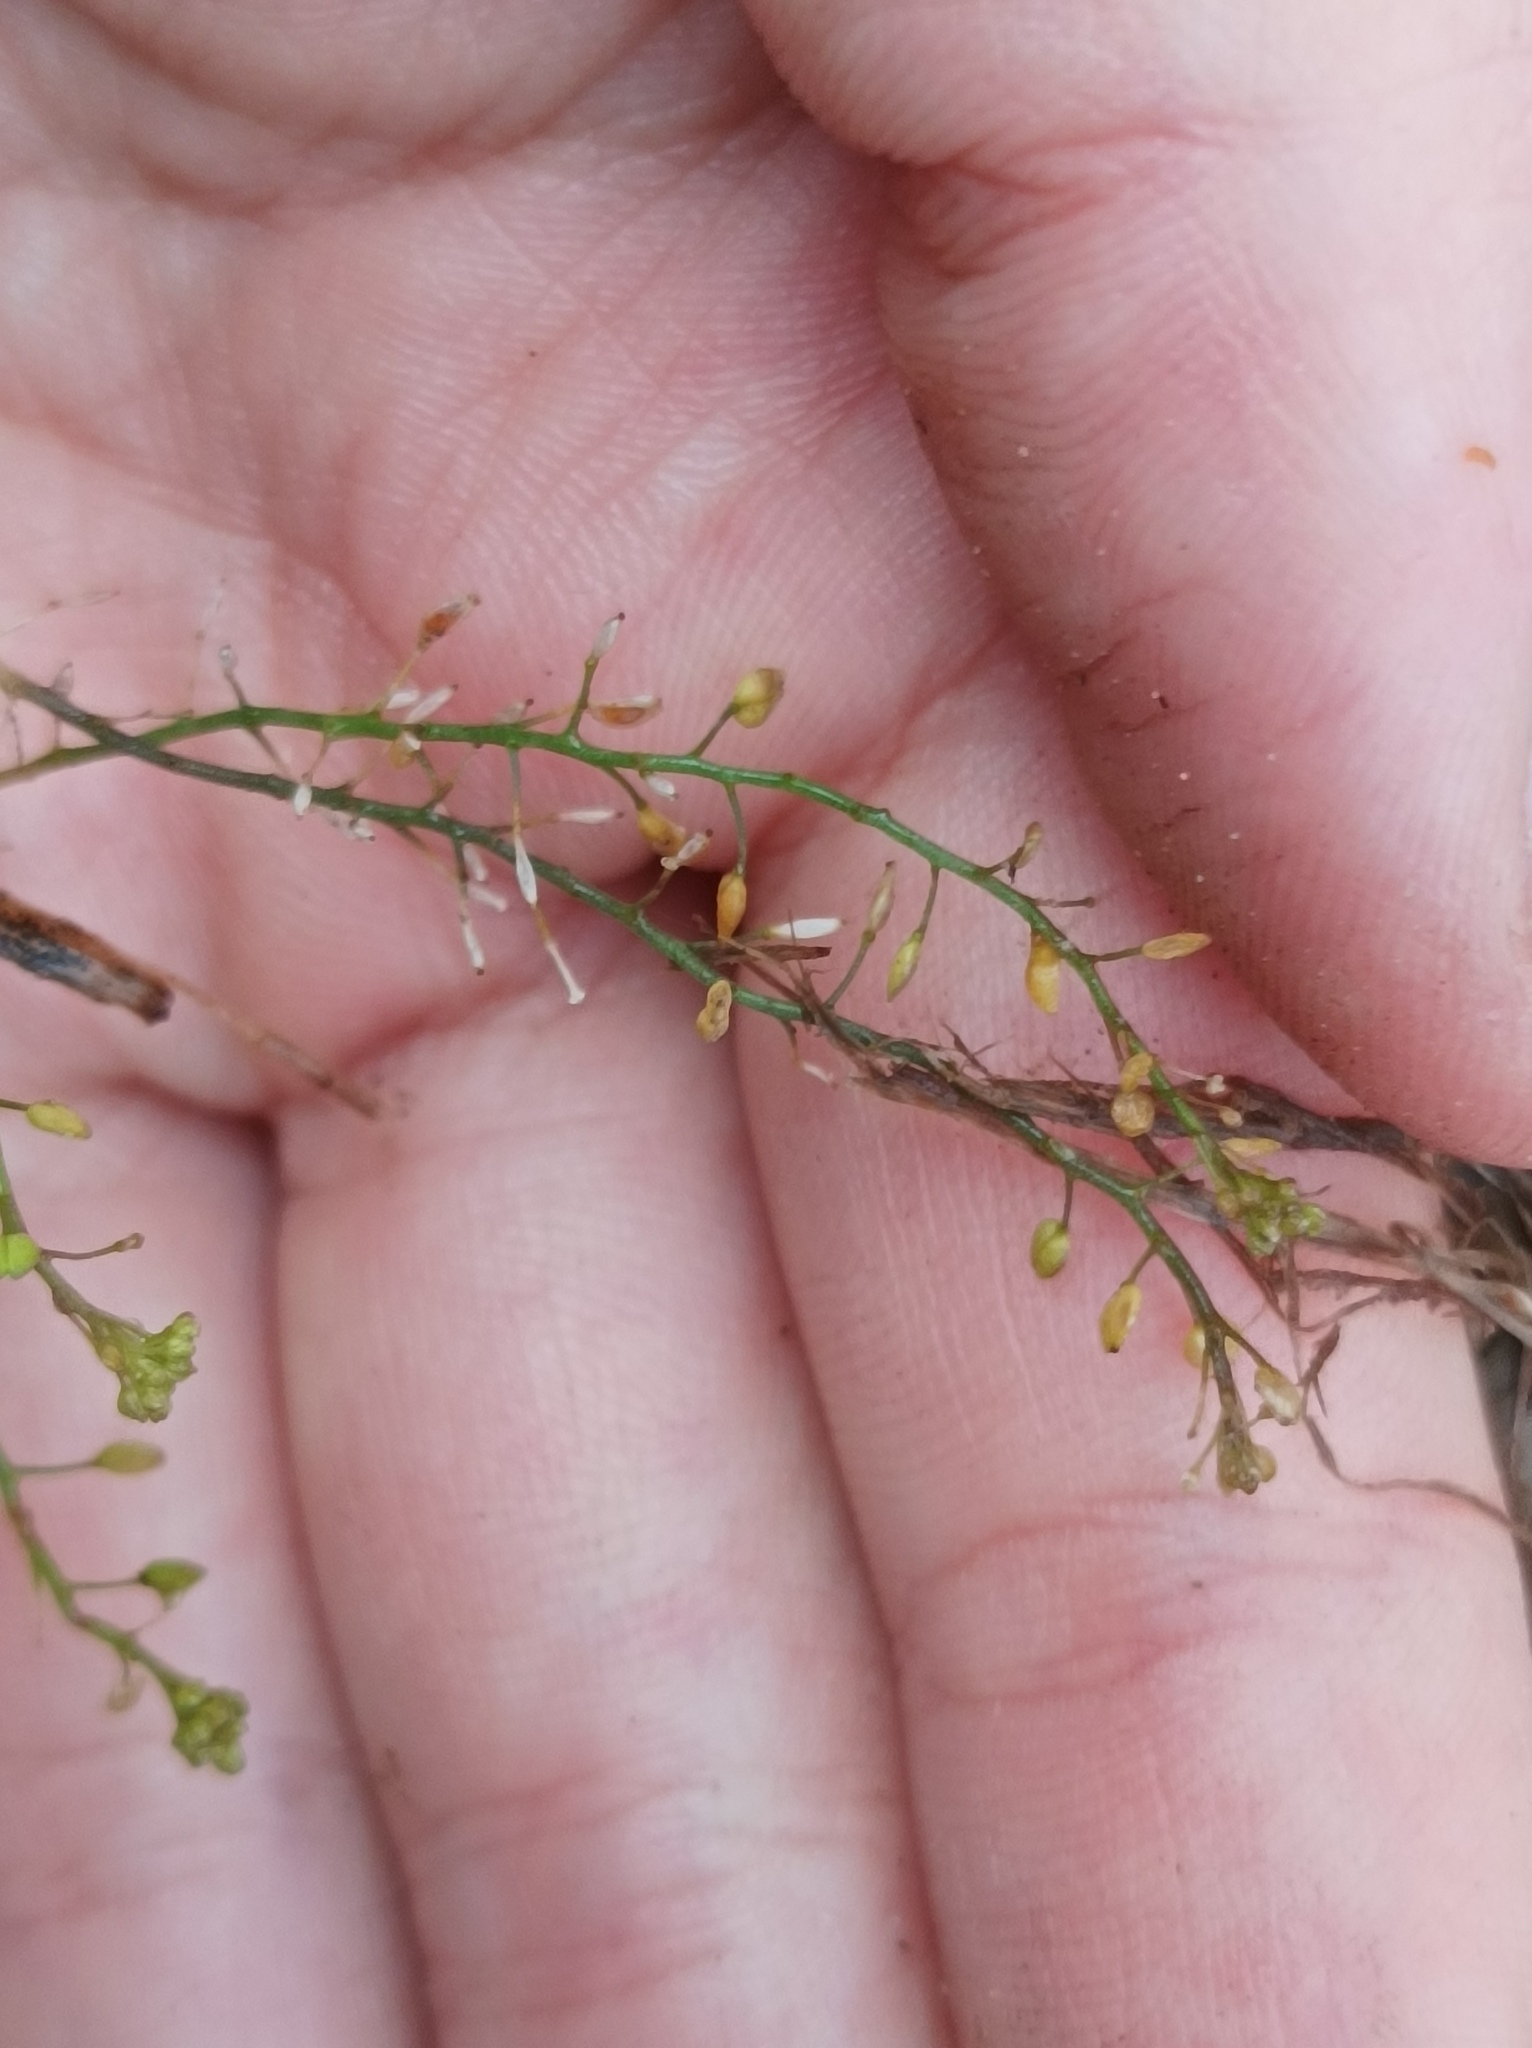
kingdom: Plantae
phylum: Tracheophyta
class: Magnoliopsida
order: Brassicales
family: Brassicaceae
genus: Lepidium
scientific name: Lepidium ruderale
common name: Narrow-leaved pepperwort
